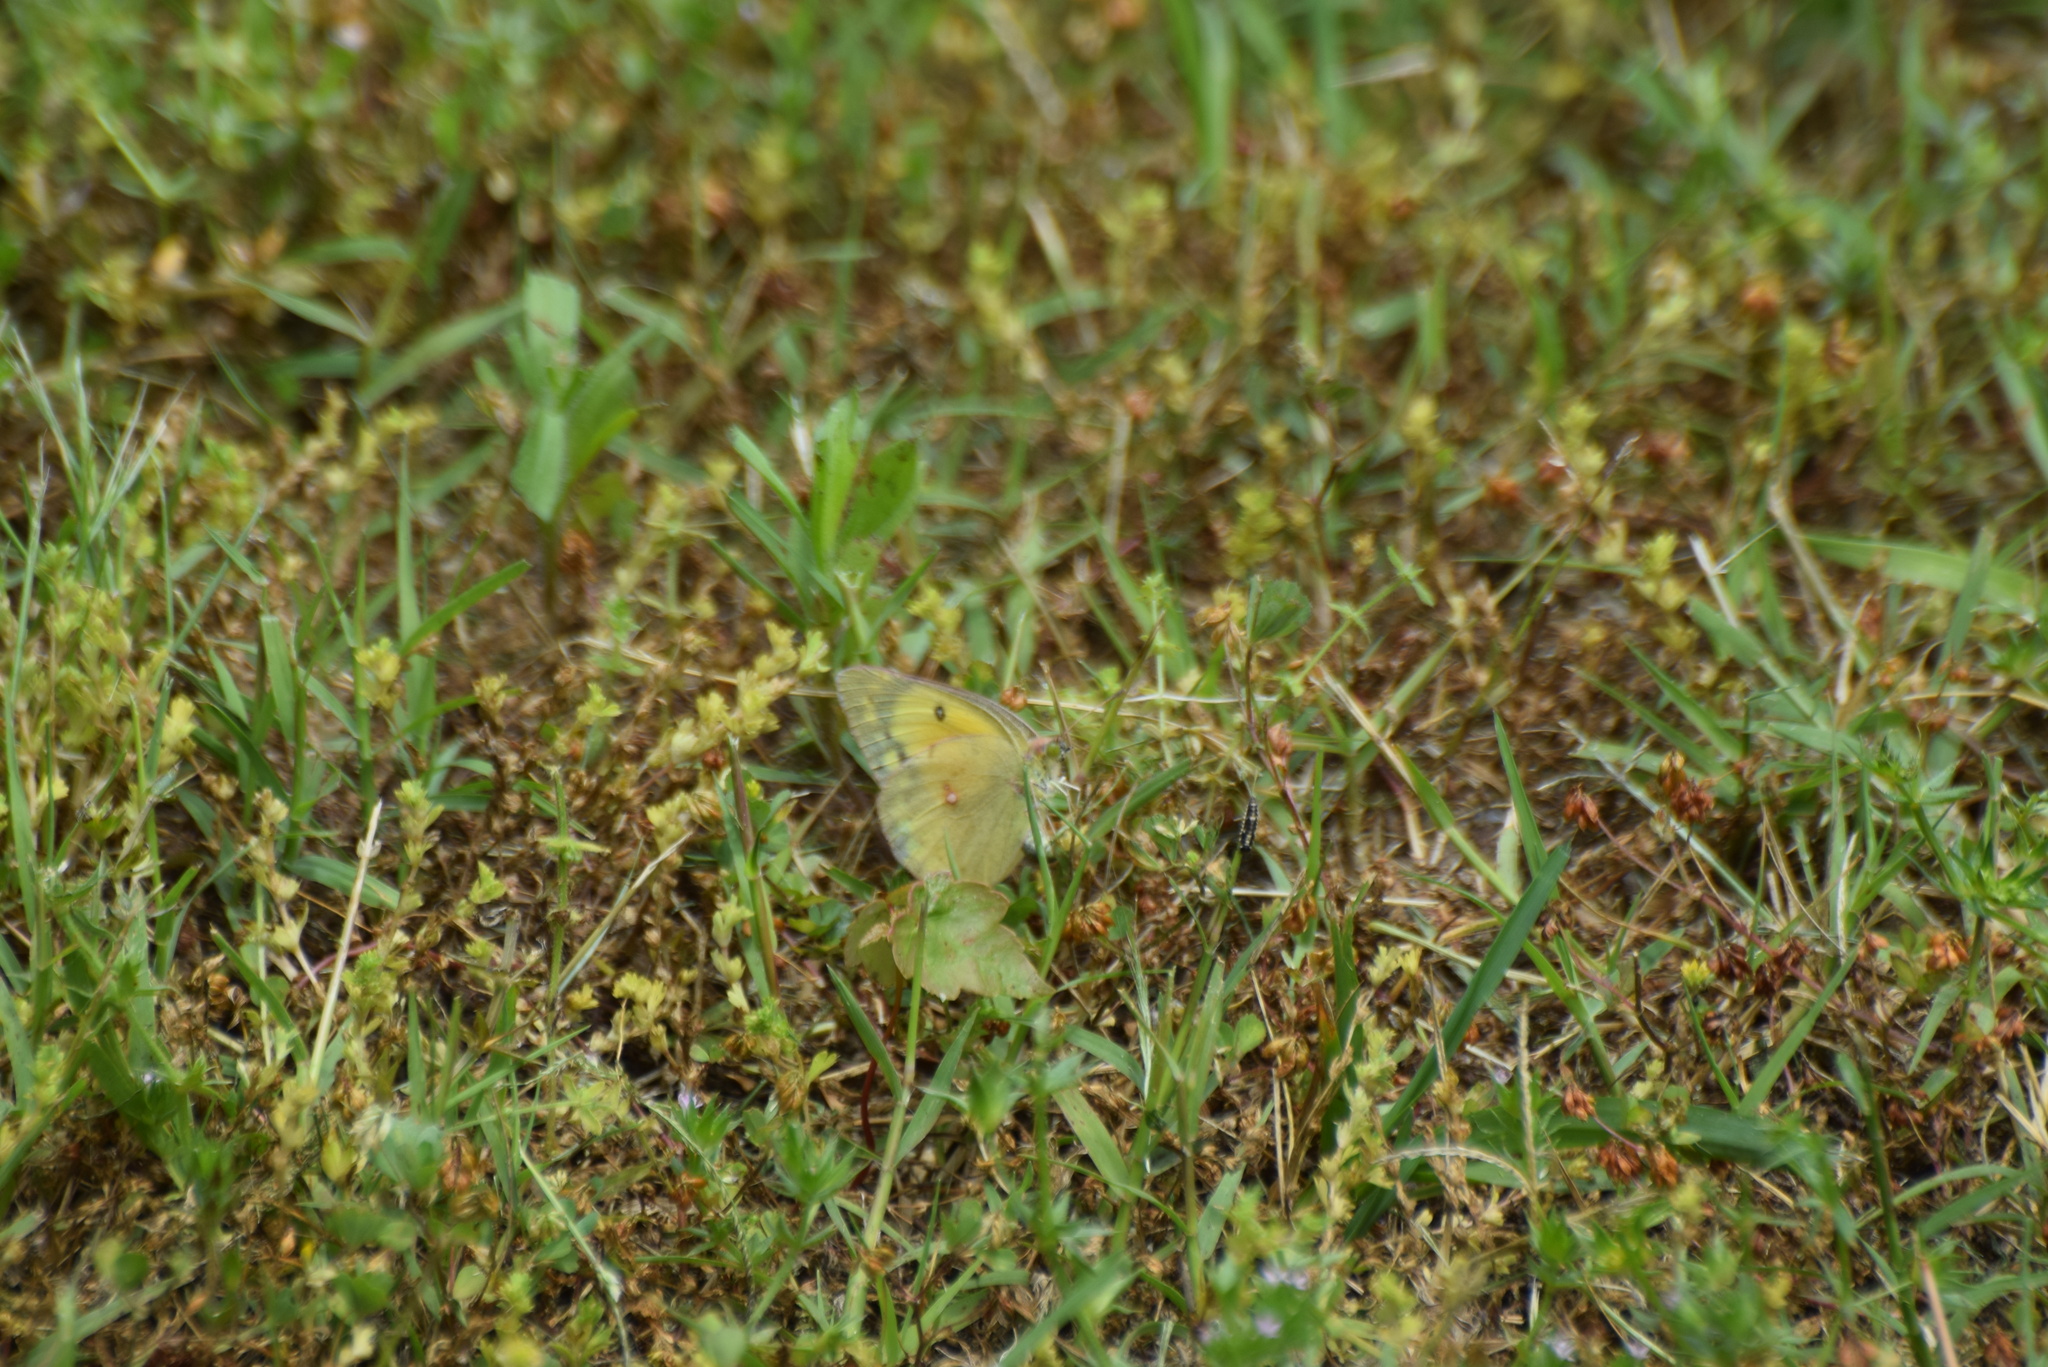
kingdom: Animalia
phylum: Arthropoda
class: Insecta
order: Lepidoptera
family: Pieridae
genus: Colias
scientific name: Colias eurytheme
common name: Alfalfa butterfly
